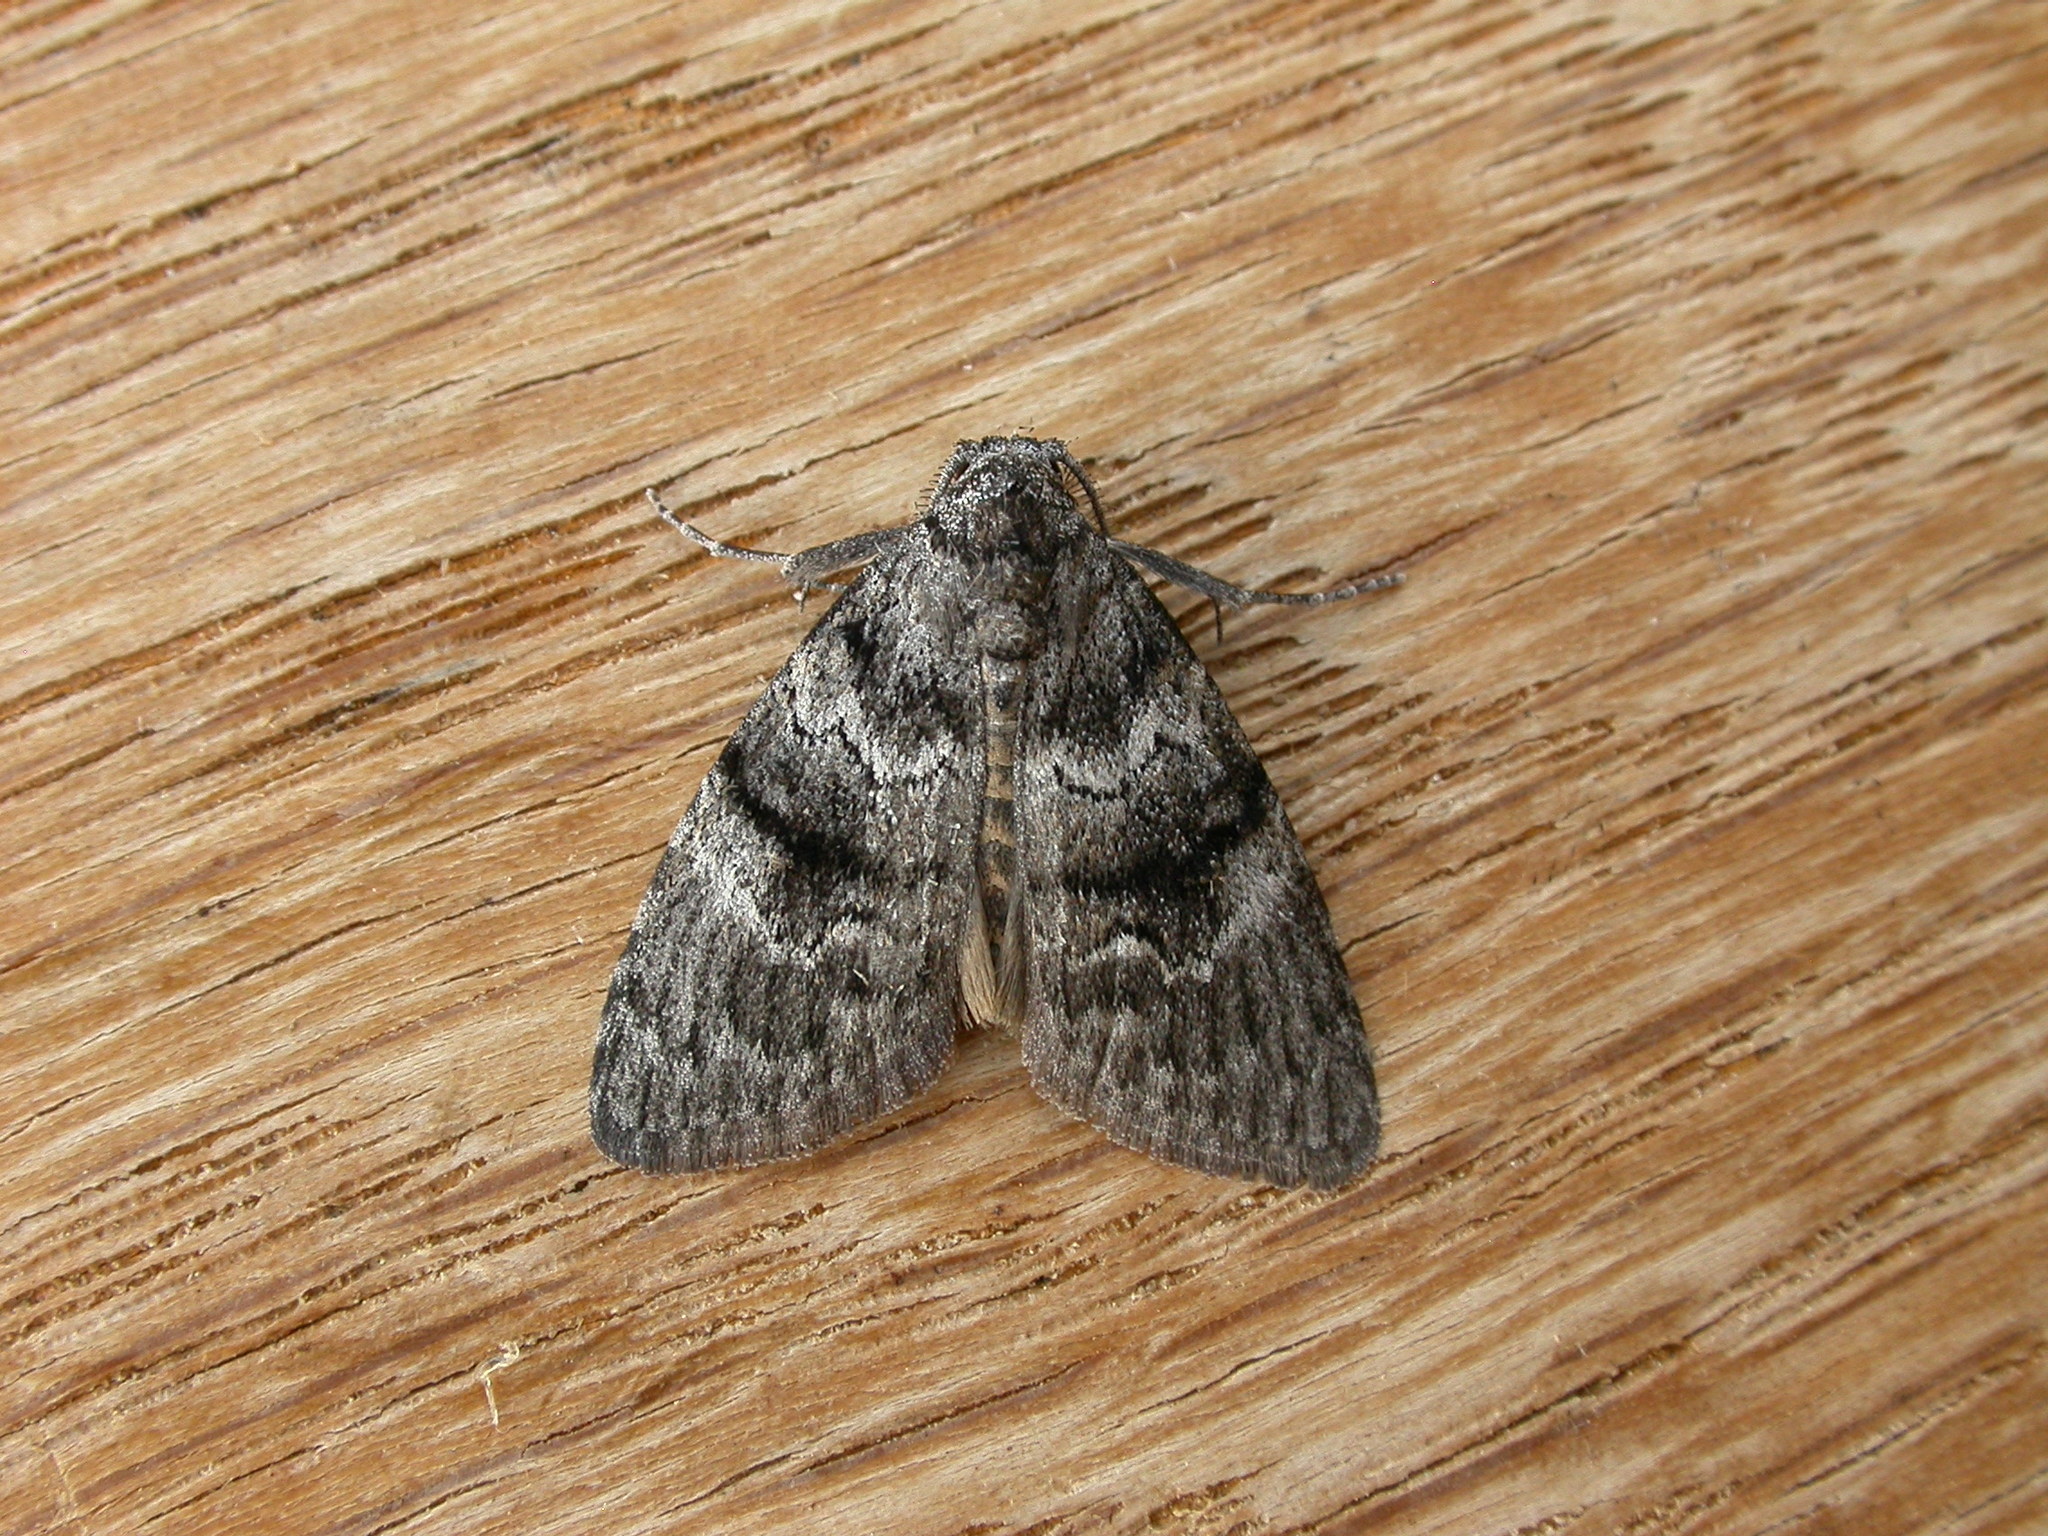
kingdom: Animalia
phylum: Arthropoda
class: Insecta
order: Lepidoptera
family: Nolidae
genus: Uraba
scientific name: Uraba lugens
